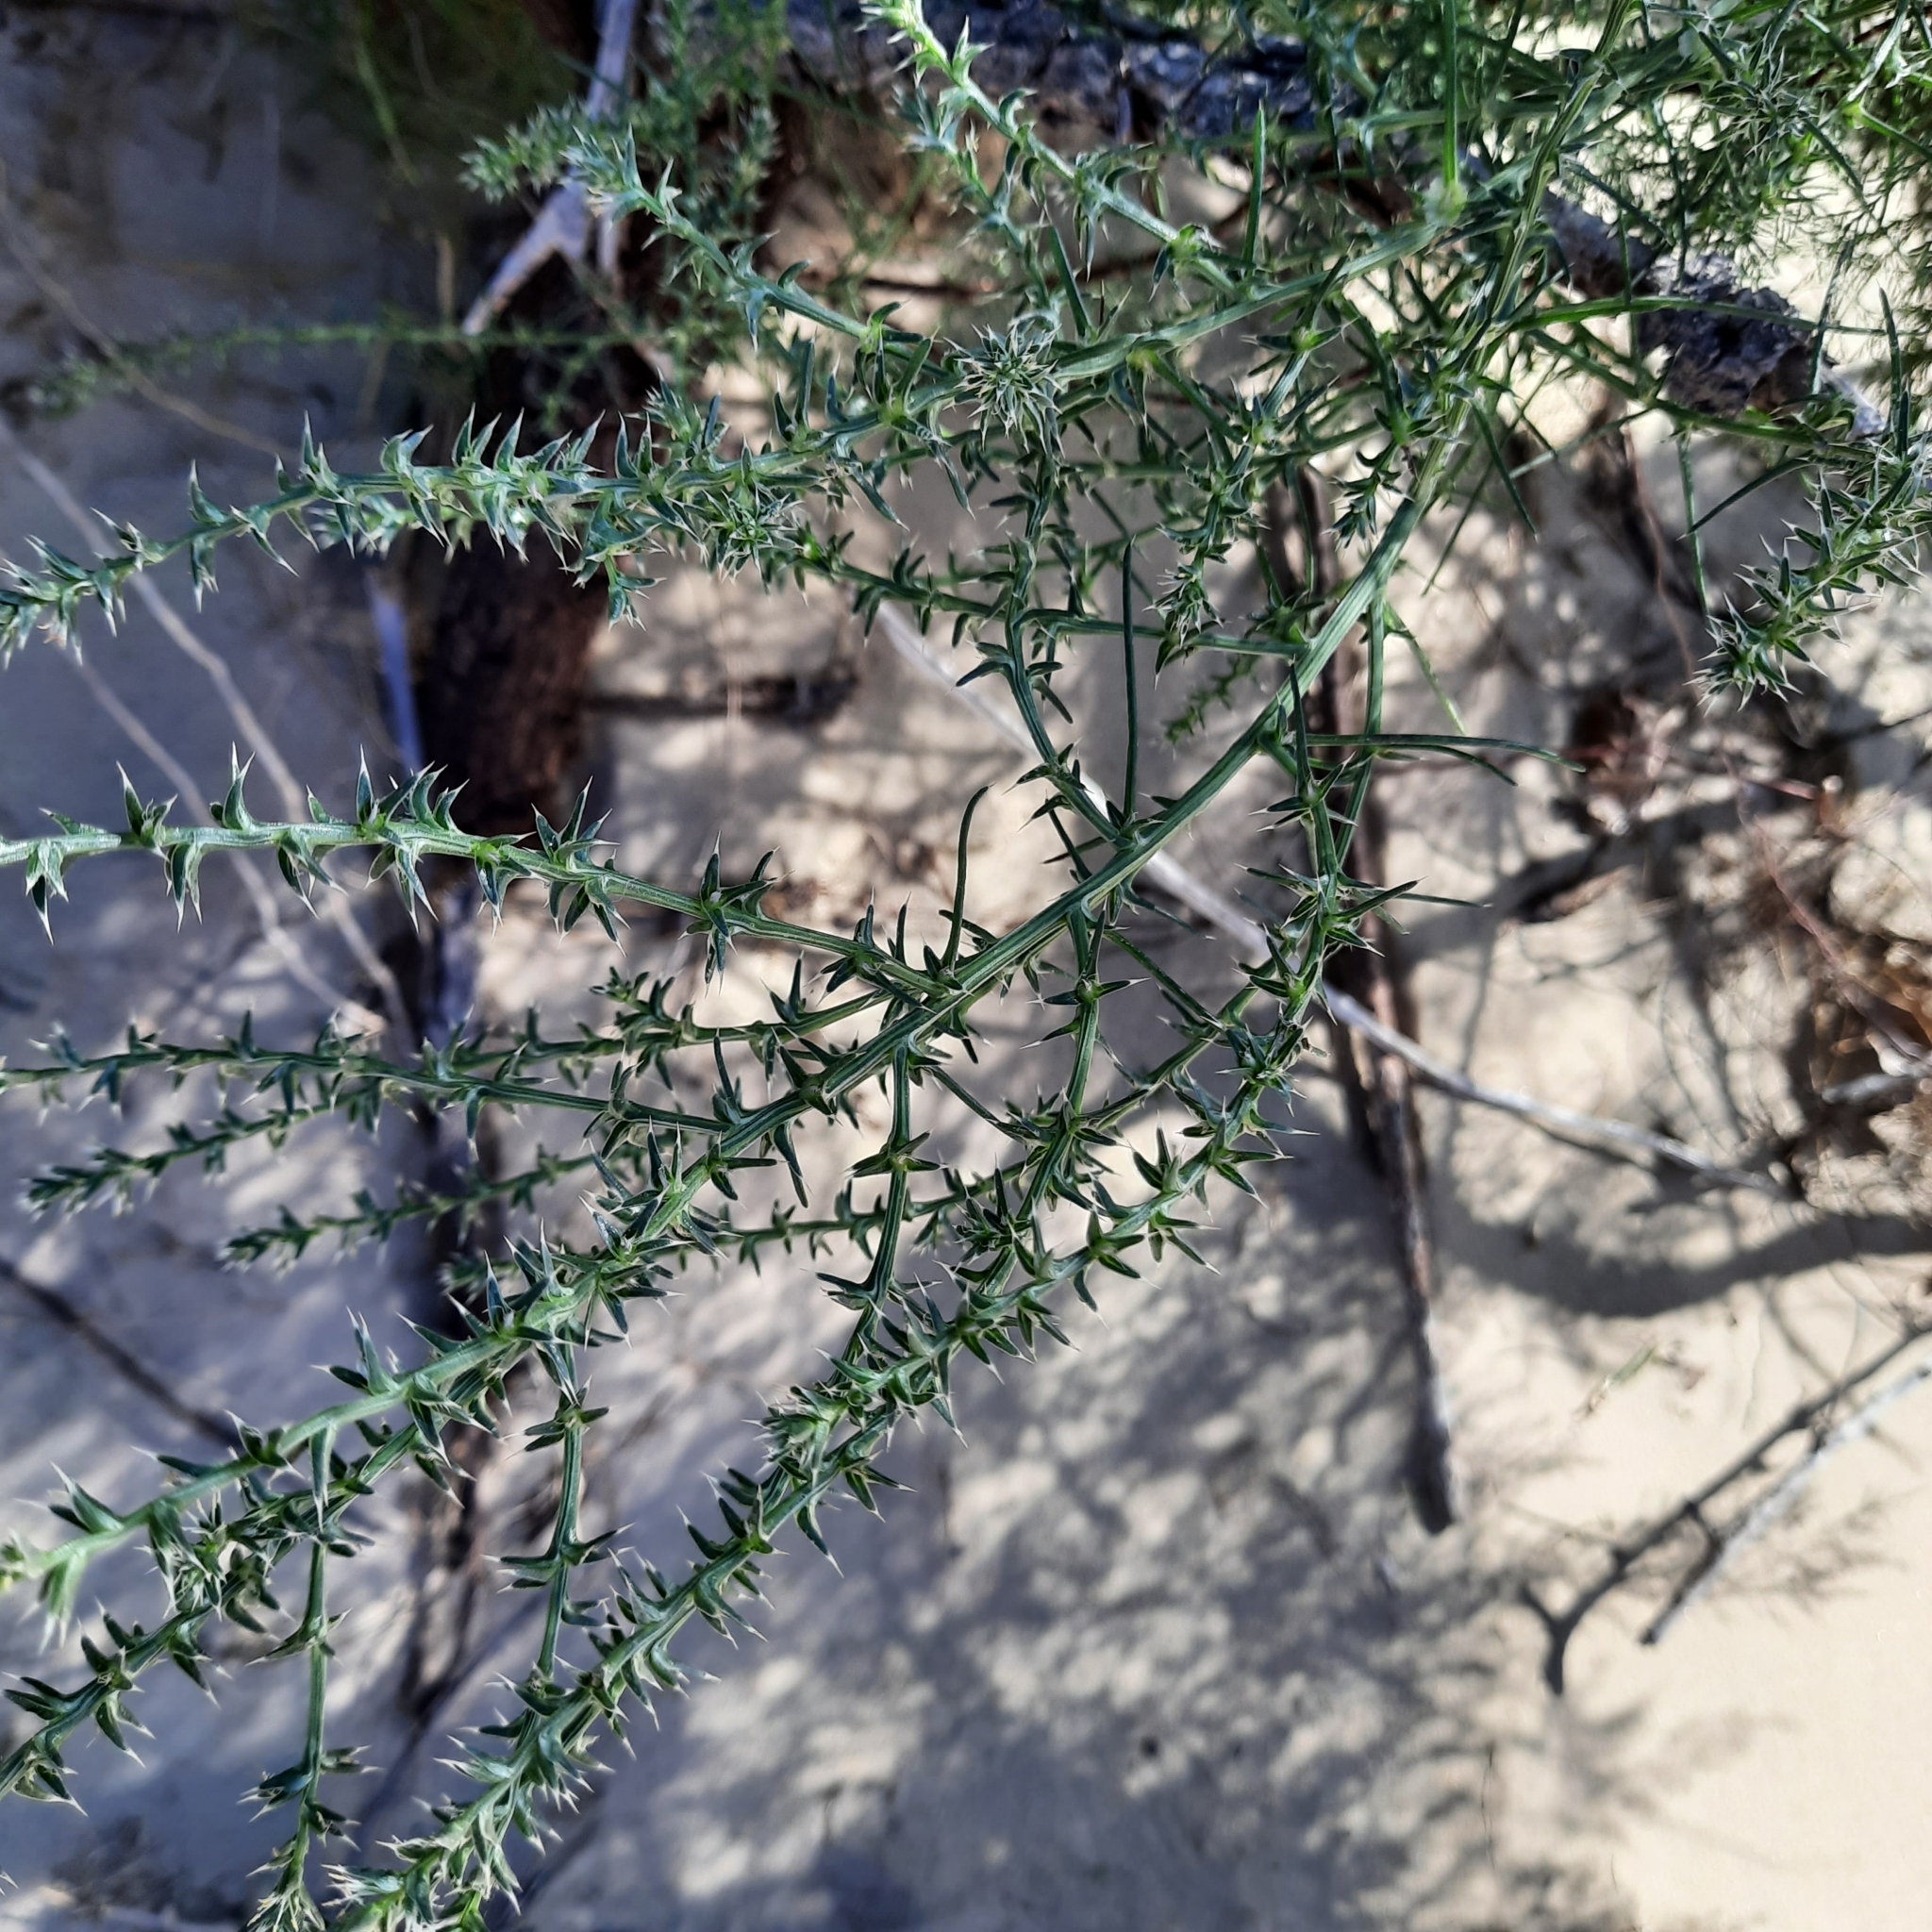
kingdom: Plantae
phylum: Tracheophyta
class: Magnoliopsida
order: Caryophyllales
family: Amaranthaceae
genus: Salsola
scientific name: Salsola tragus
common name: Prickly russian thistle
